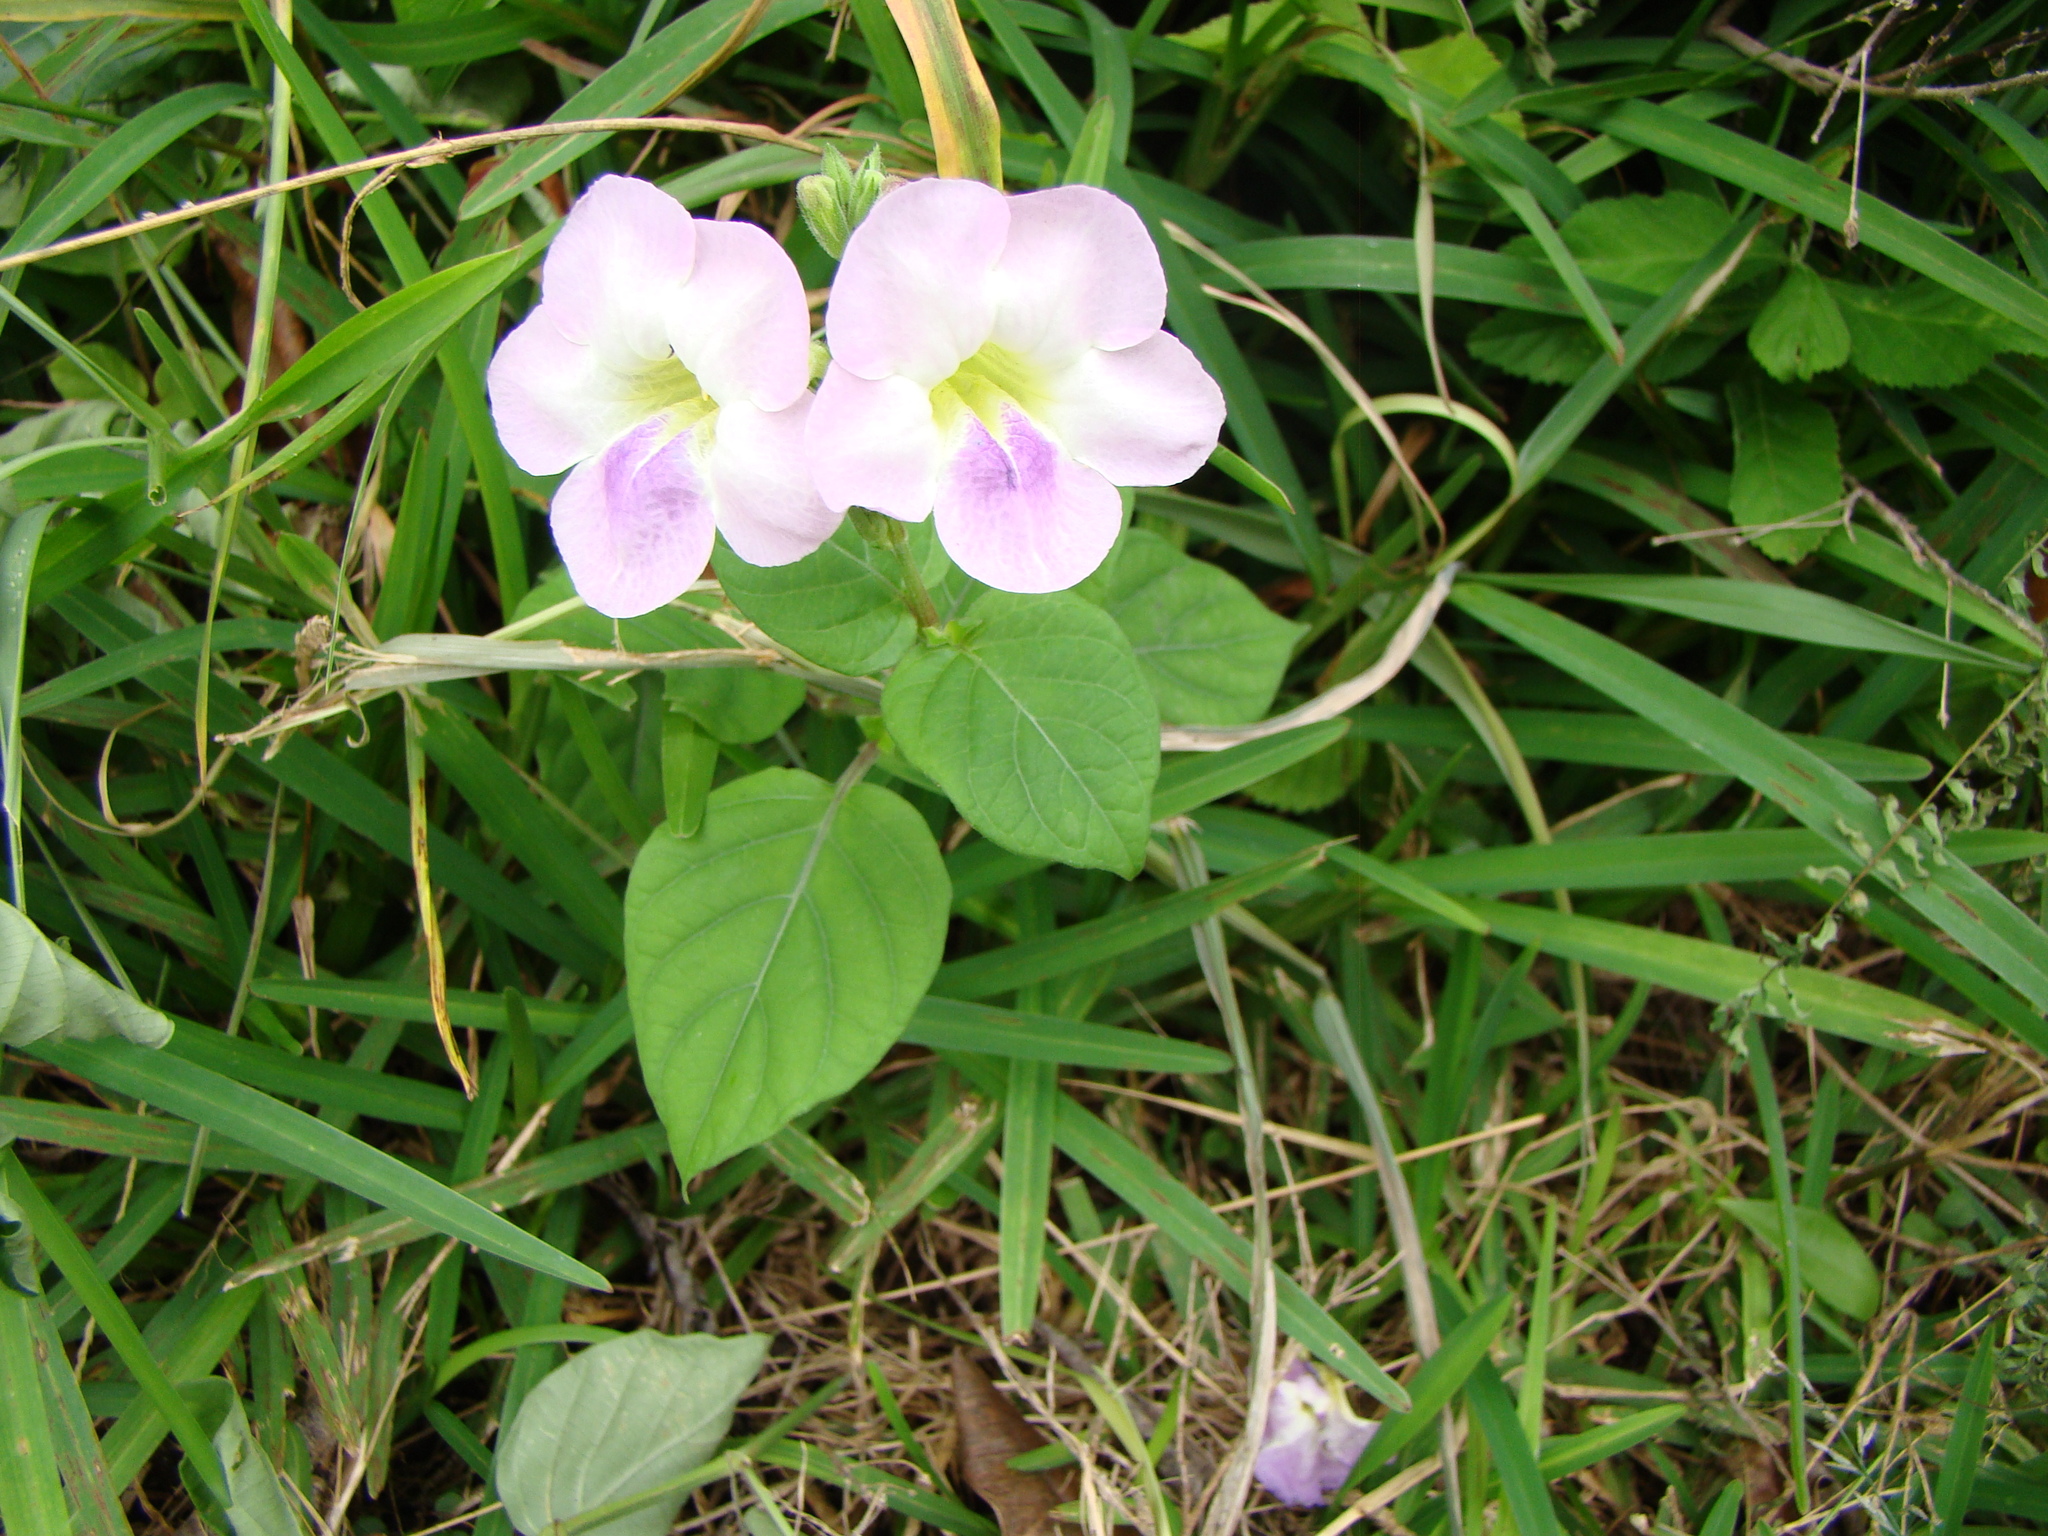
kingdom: Plantae
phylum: Tracheophyta
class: Magnoliopsida
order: Lamiales
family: Acanthaceae
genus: Asystasia
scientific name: Asystasia gangetica
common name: Chinese violet
